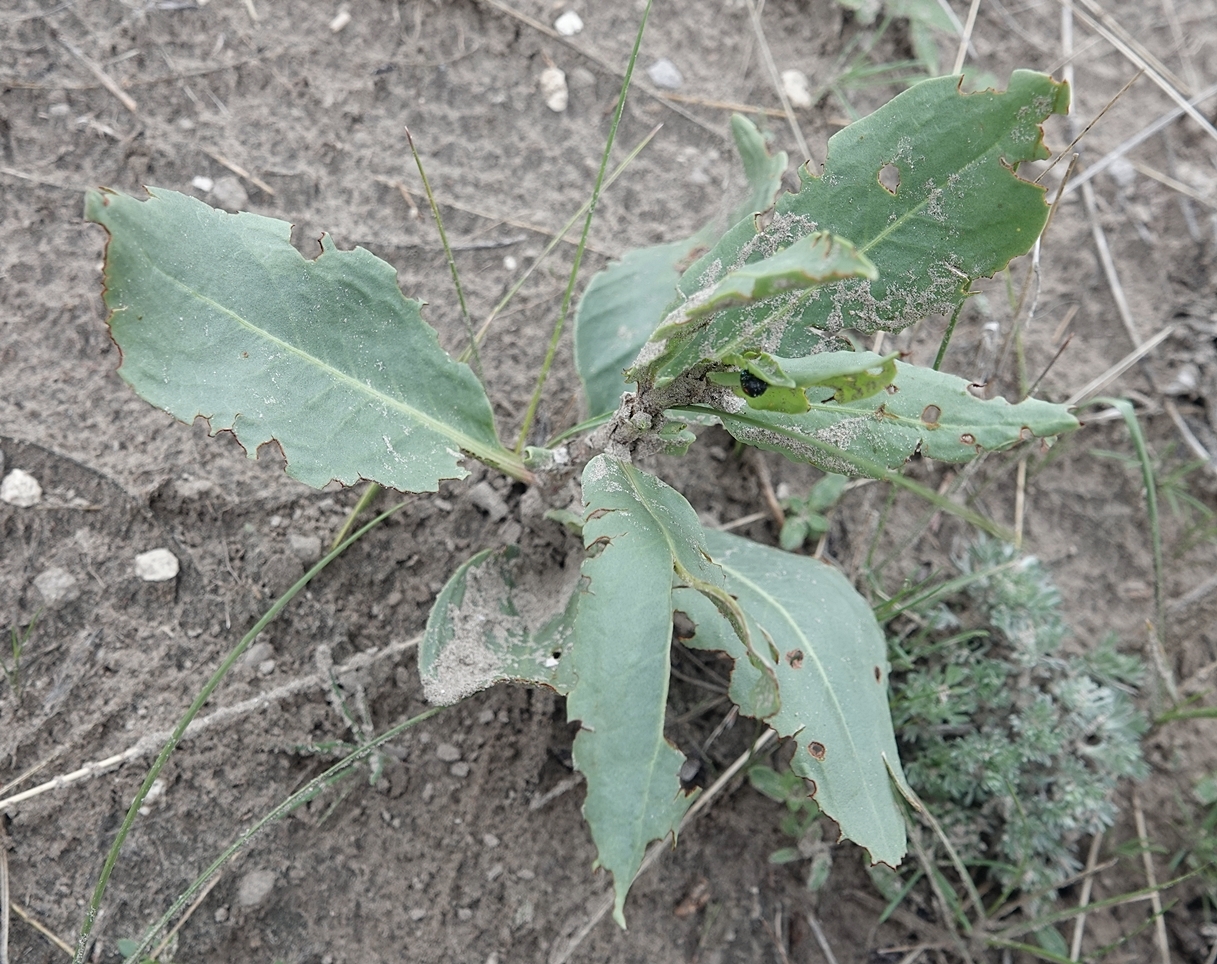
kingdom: Plantae
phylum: Tracheophyta
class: Magnoliopsida
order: Caryophyllales
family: Polygonaceae
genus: Rumex
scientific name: Rumex venosus
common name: Winged dock
